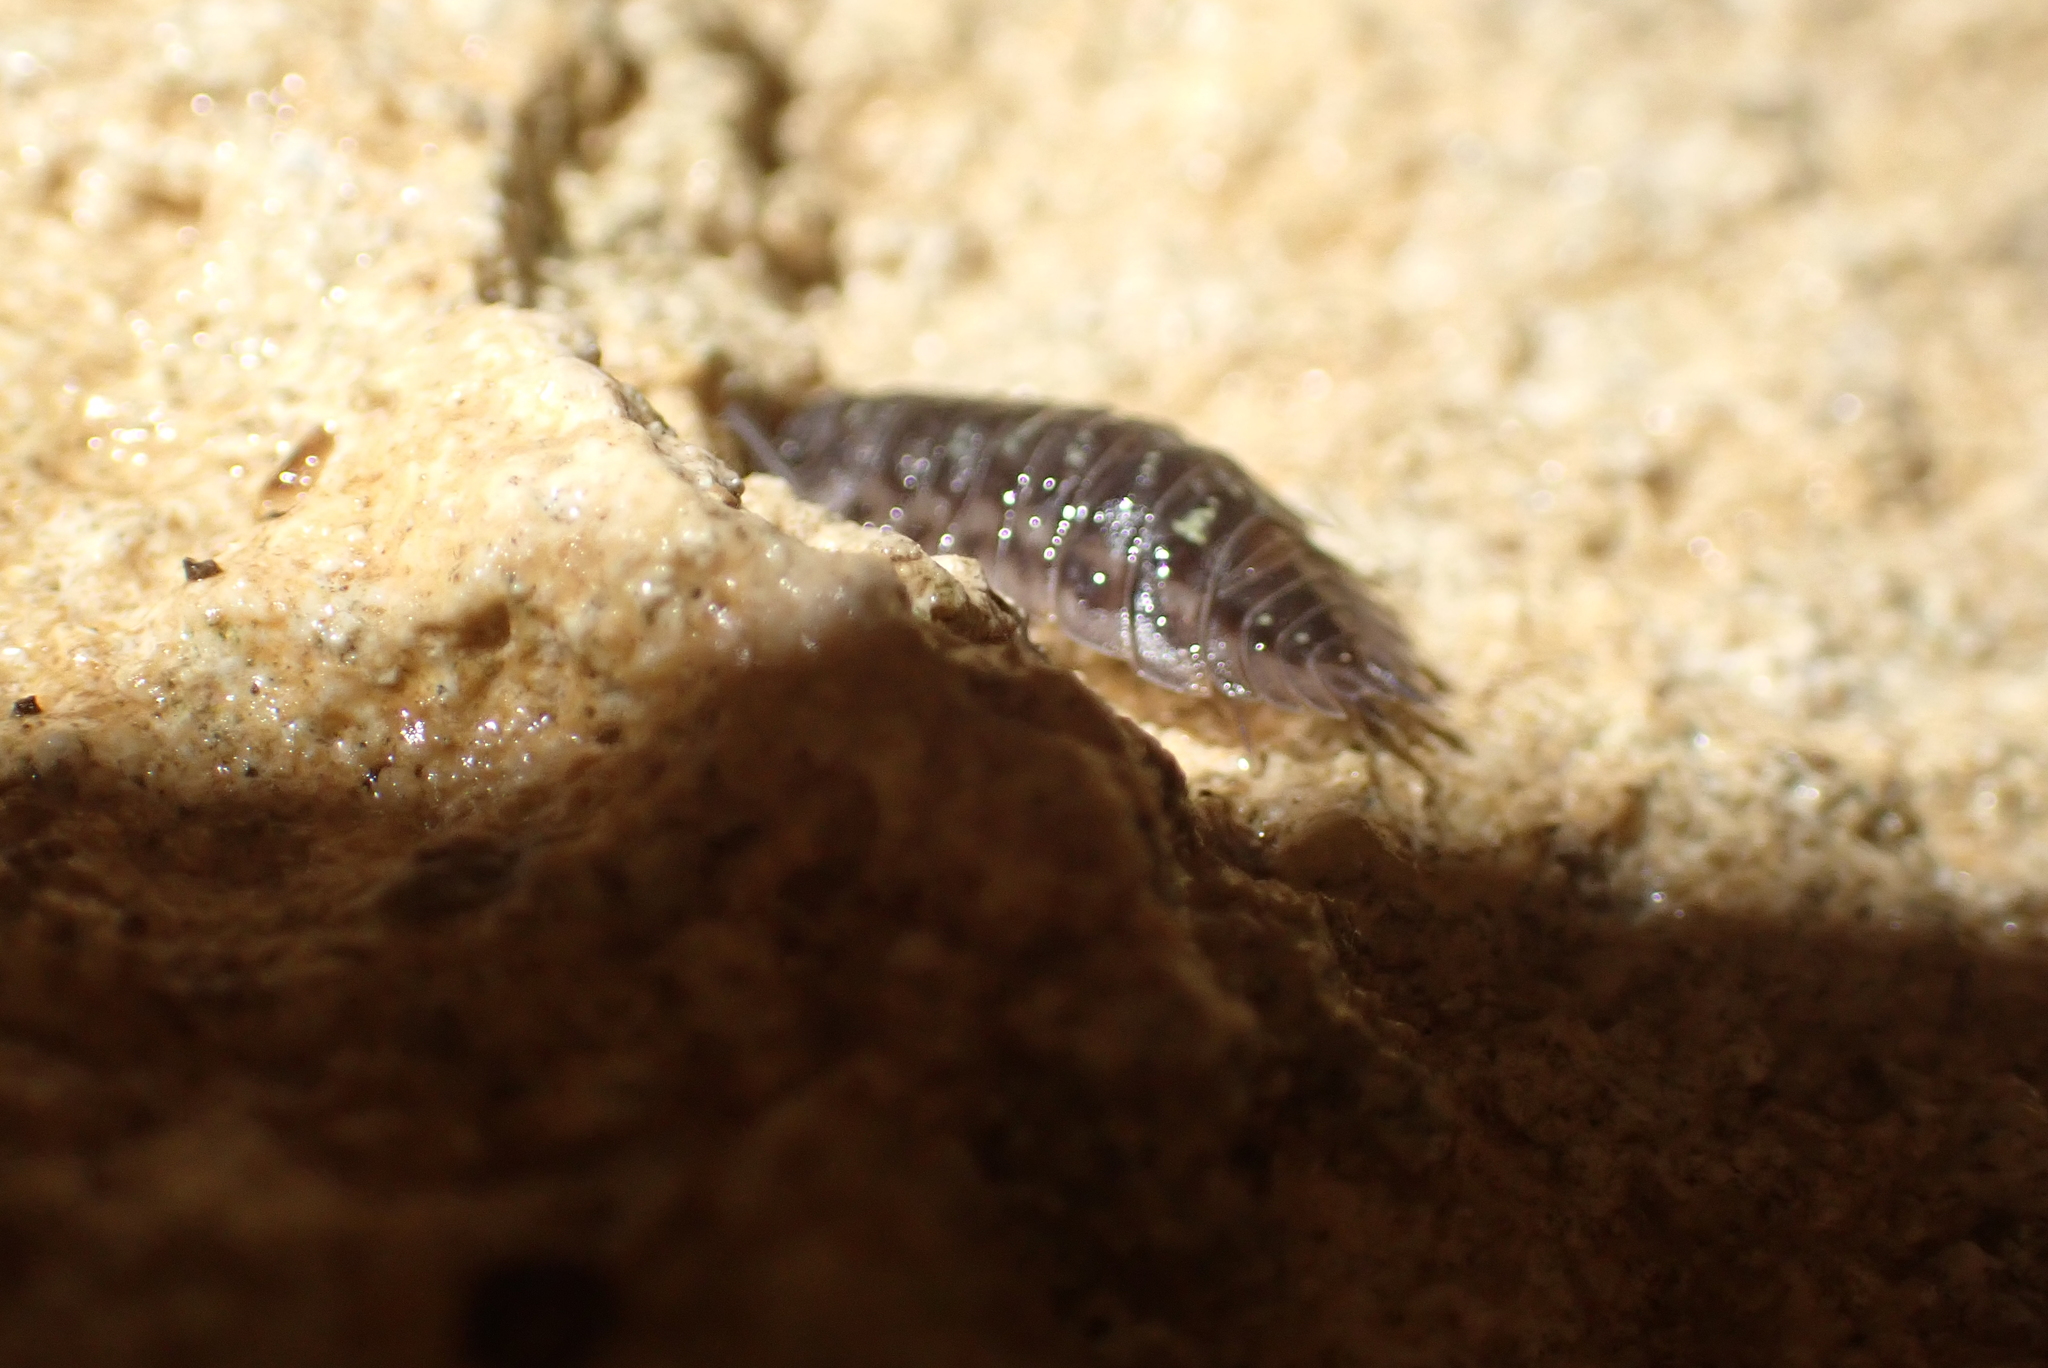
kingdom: Animalia
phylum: Arthropoda
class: Malacostraca
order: Isopoda
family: Oniscidae
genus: Oniscus
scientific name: Oniscus asellus
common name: Common shiny woodlouse
